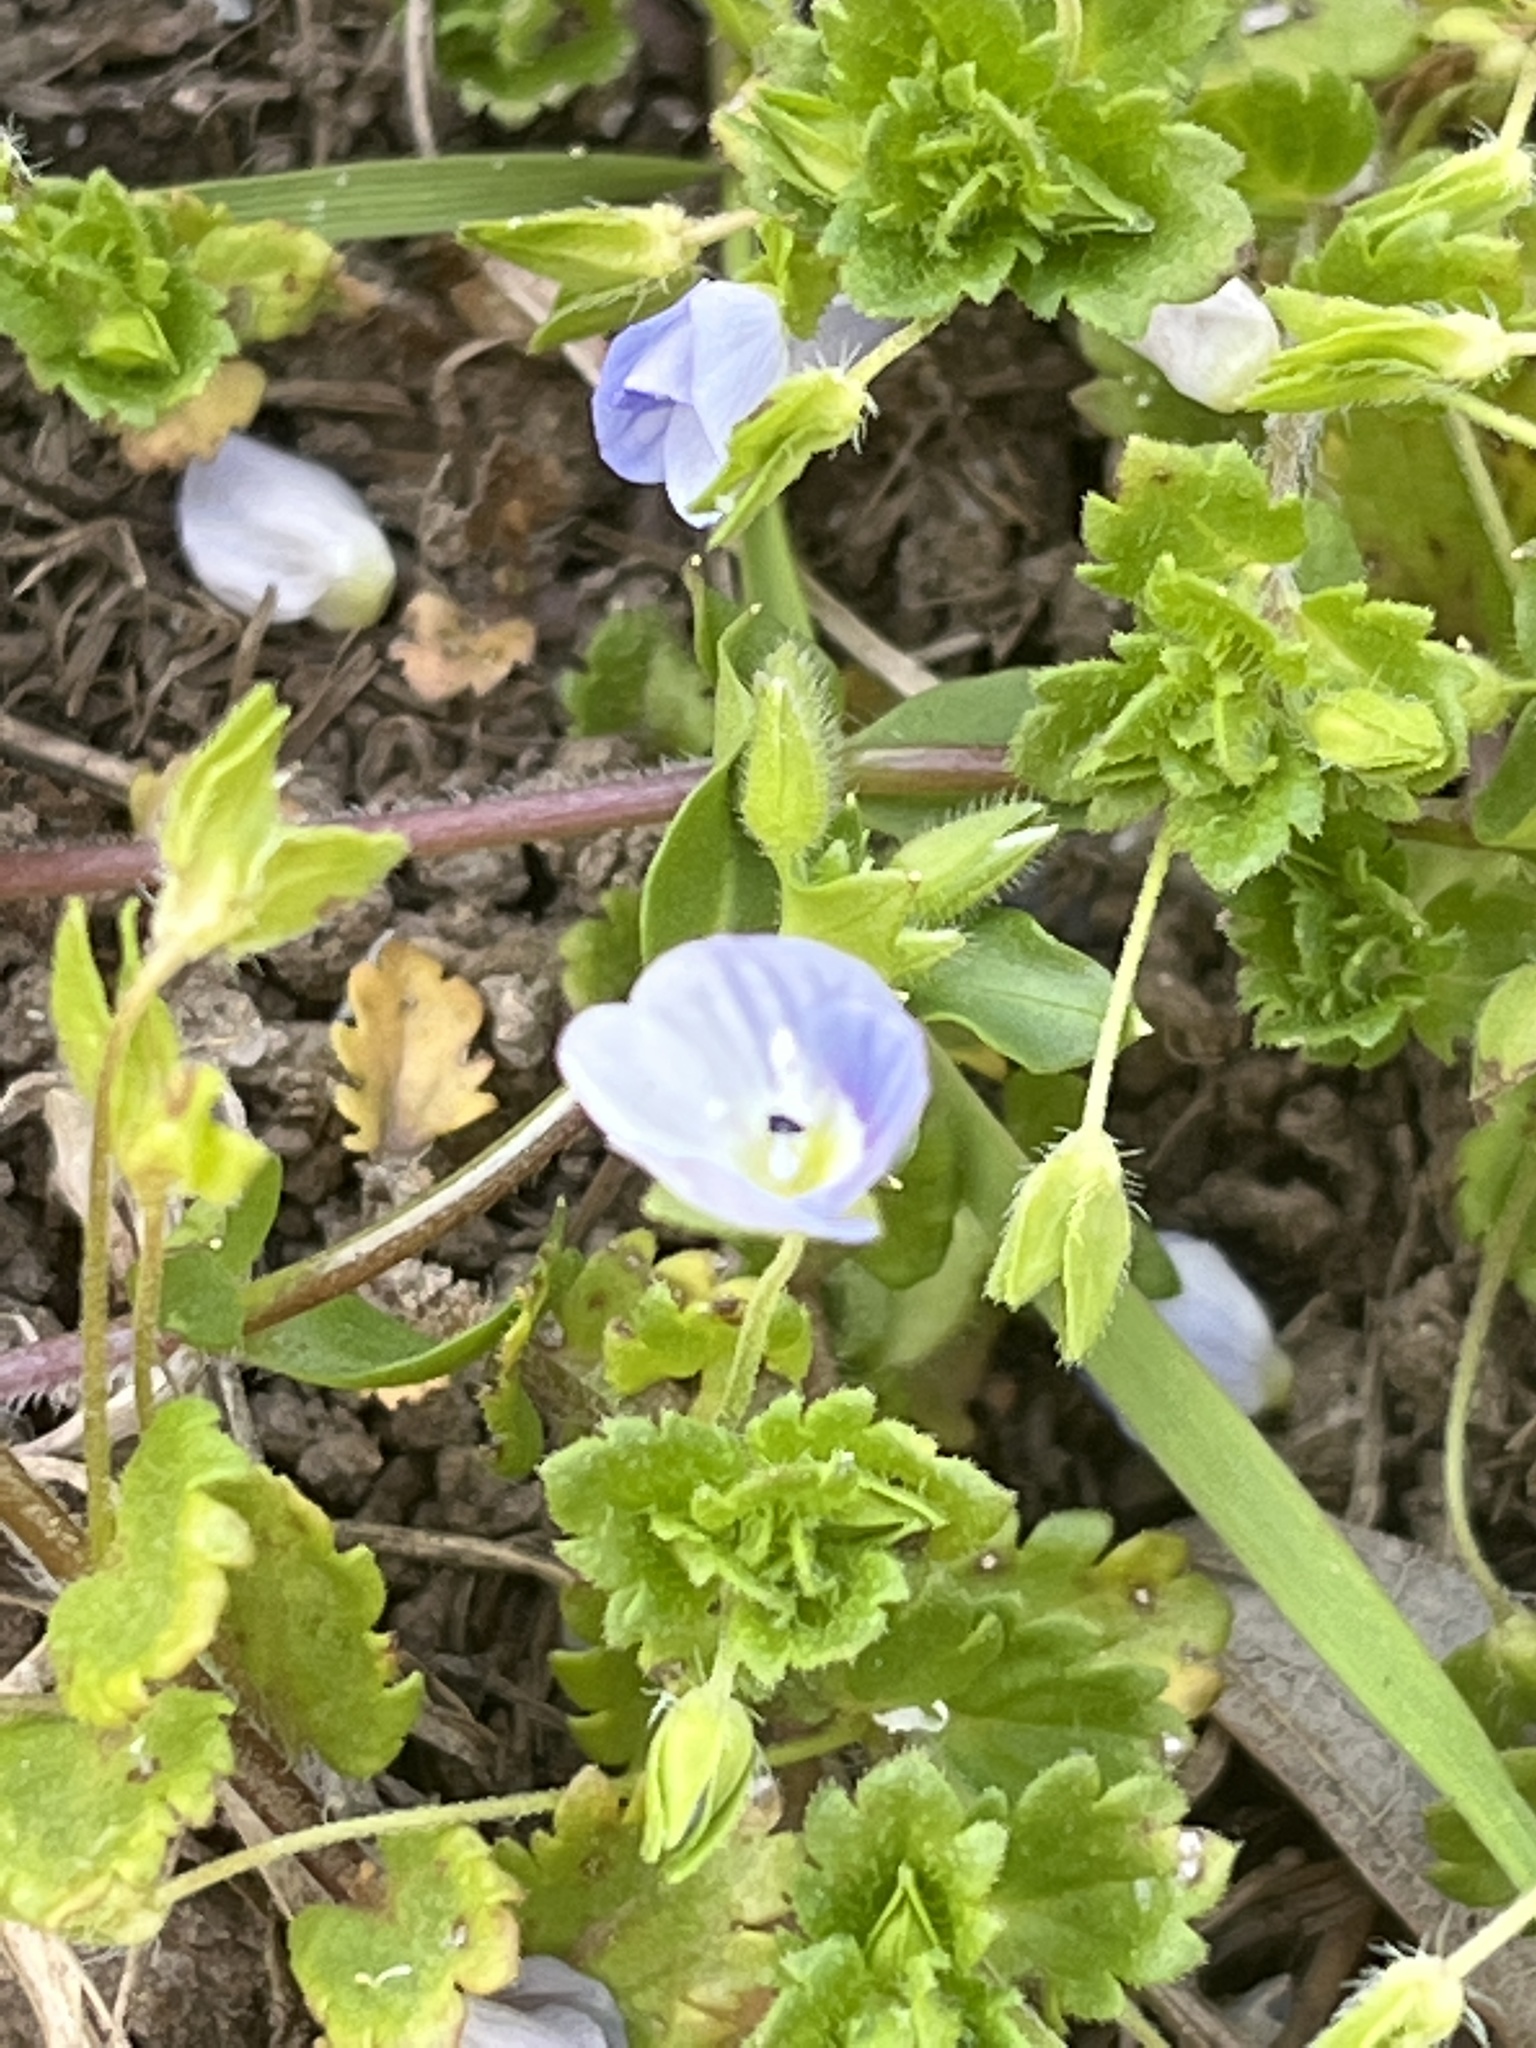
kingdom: Plantae
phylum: Tracheophyta
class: Magnoliopsida
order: Lamiales
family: Plantaginaceae
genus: Veronica
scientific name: Veronica persica
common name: Common field-speedwell
